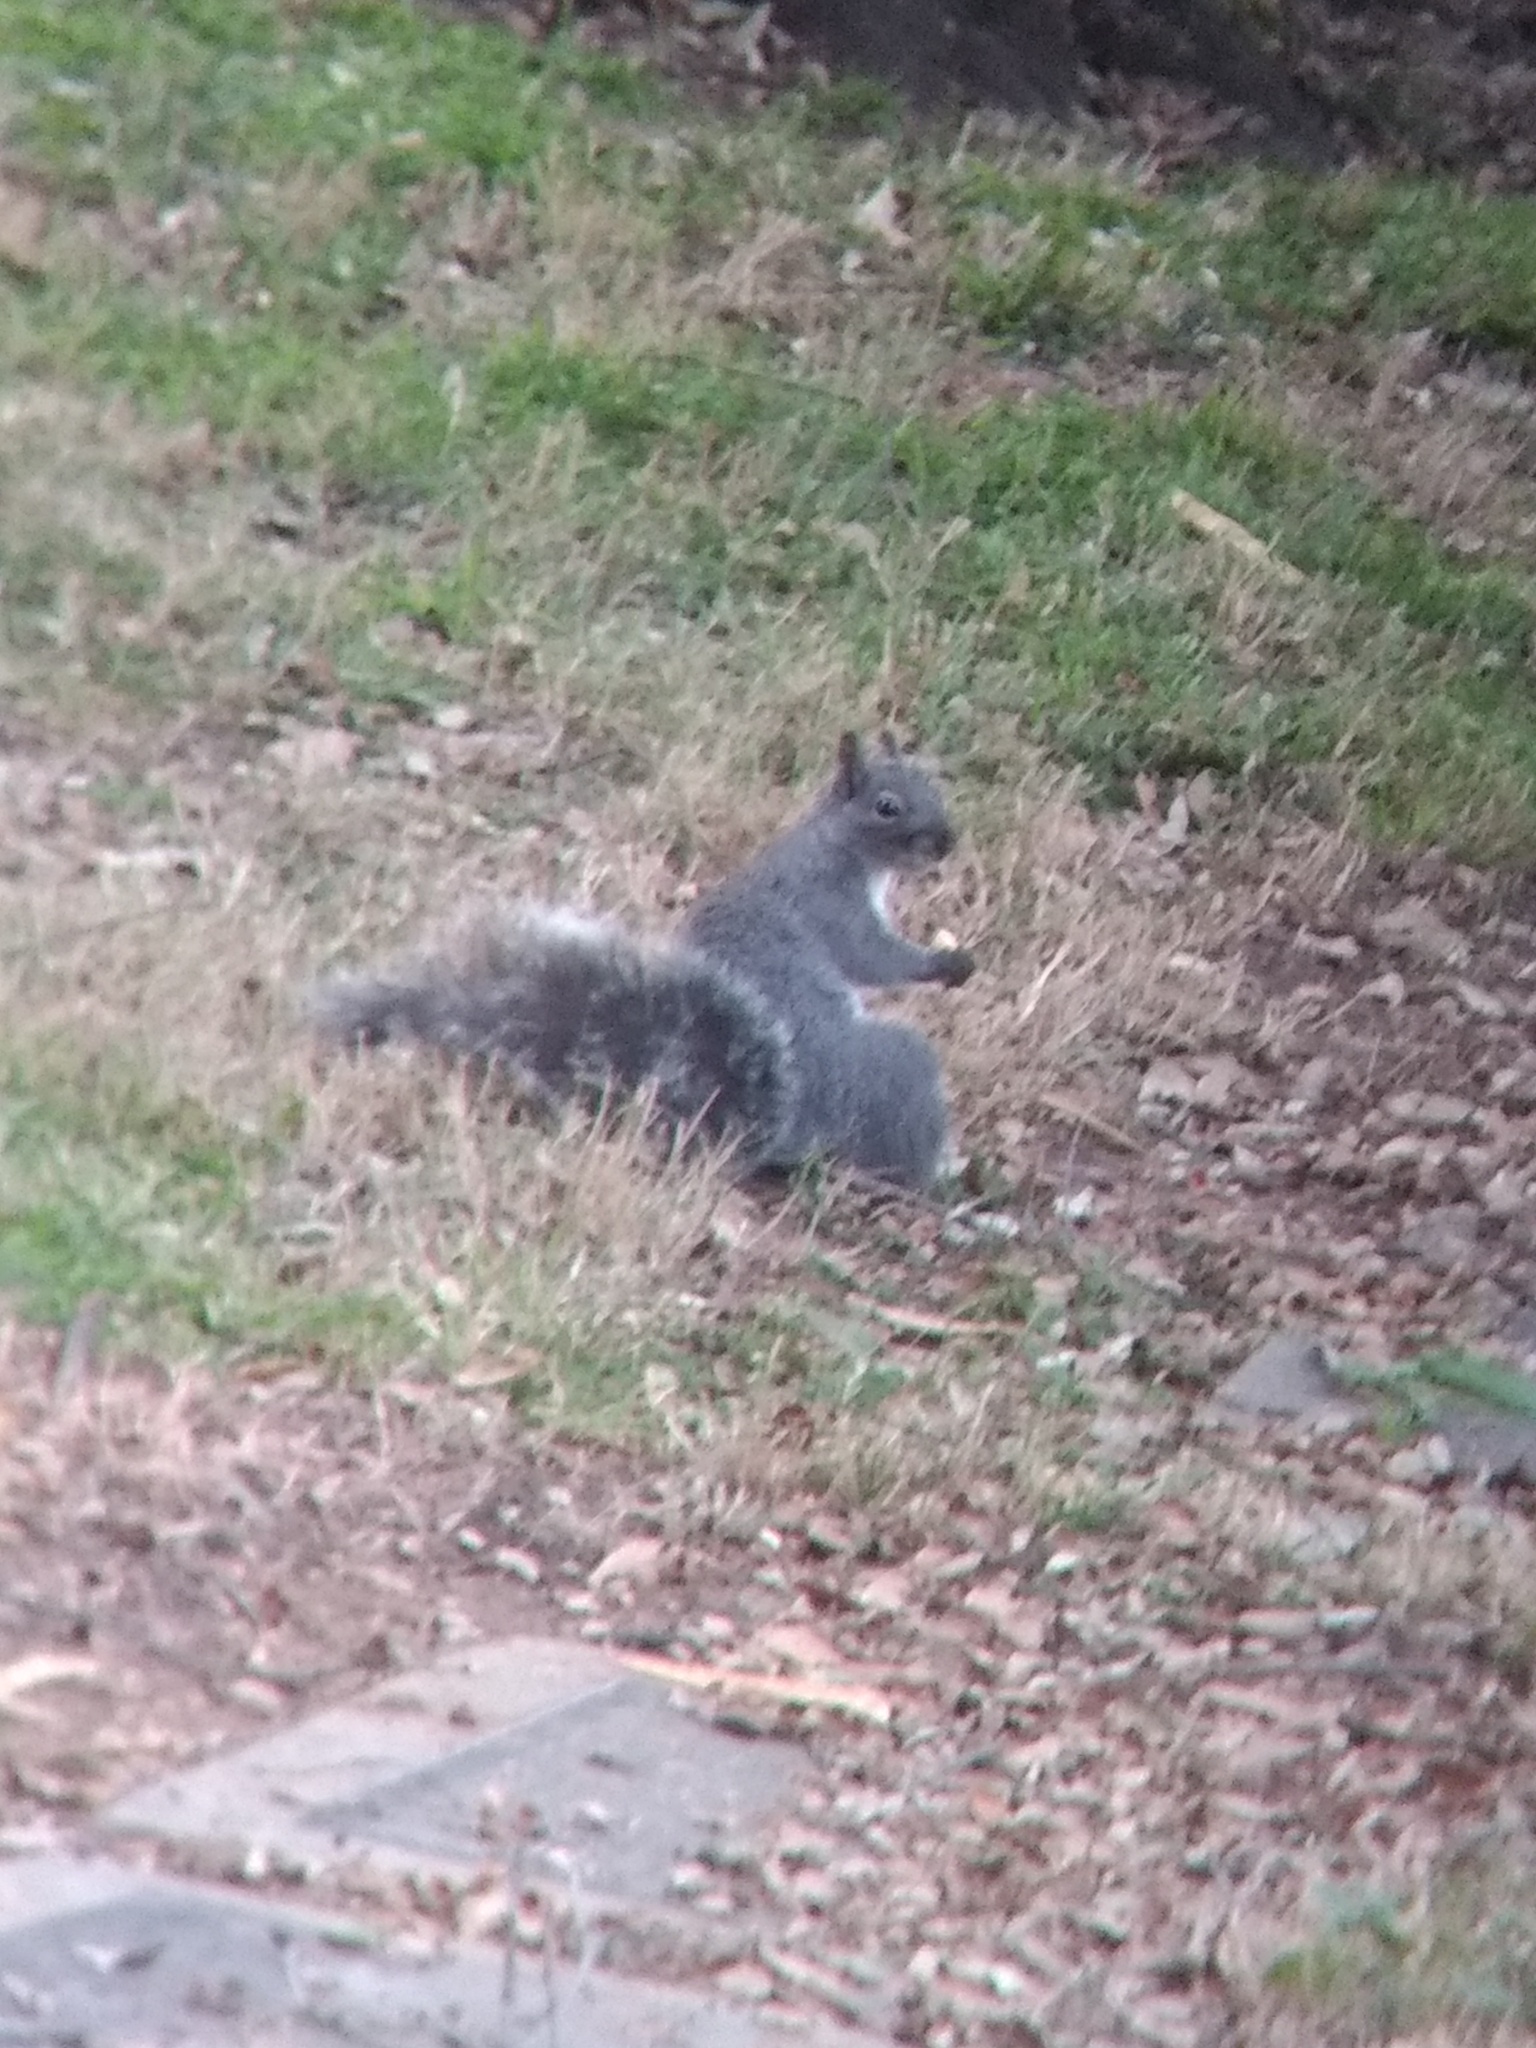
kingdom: Animalia
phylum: Chordata
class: Mammalia
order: Rodentia
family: Sciuridae
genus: Sciurus
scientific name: Sciurus griseus
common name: Western gray squirrel
